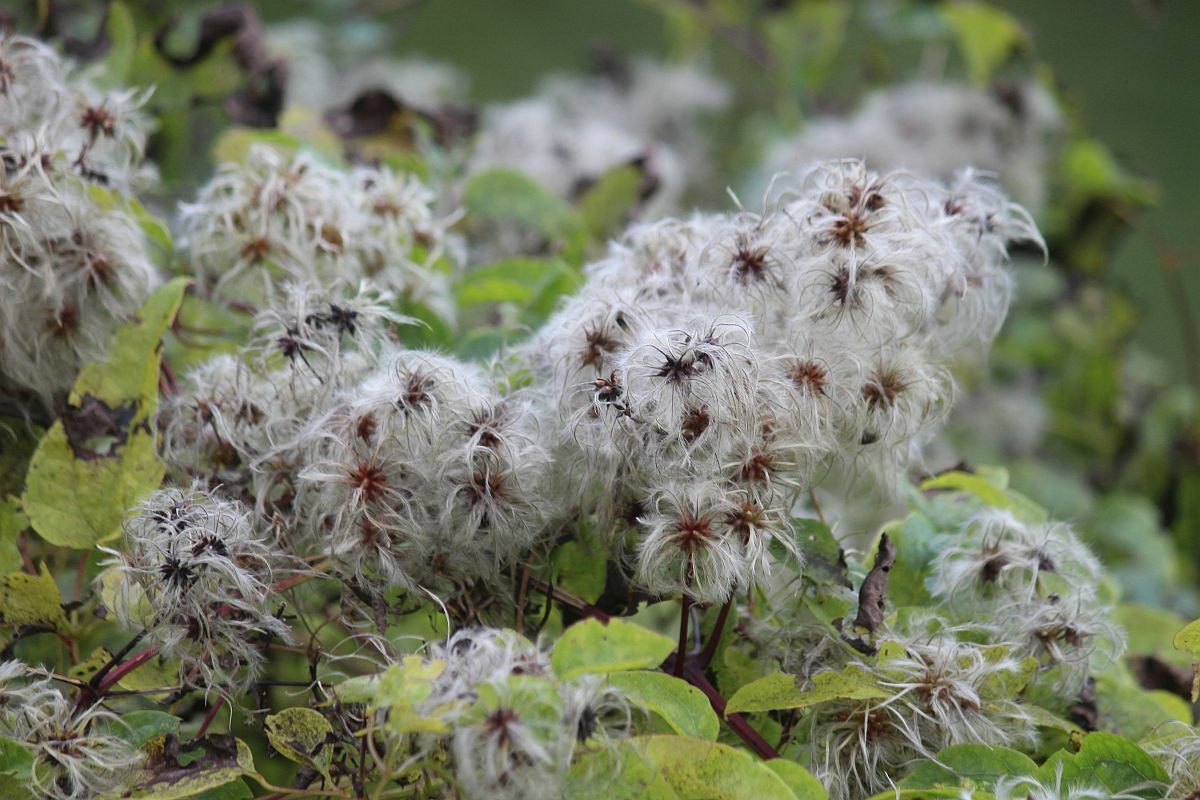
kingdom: Plantae
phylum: Tracheophyta
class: Magnoliopsida
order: Ranunculales
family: Ranunculaceae
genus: Clematis
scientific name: Clematis vitalba
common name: Evergreen clematis
